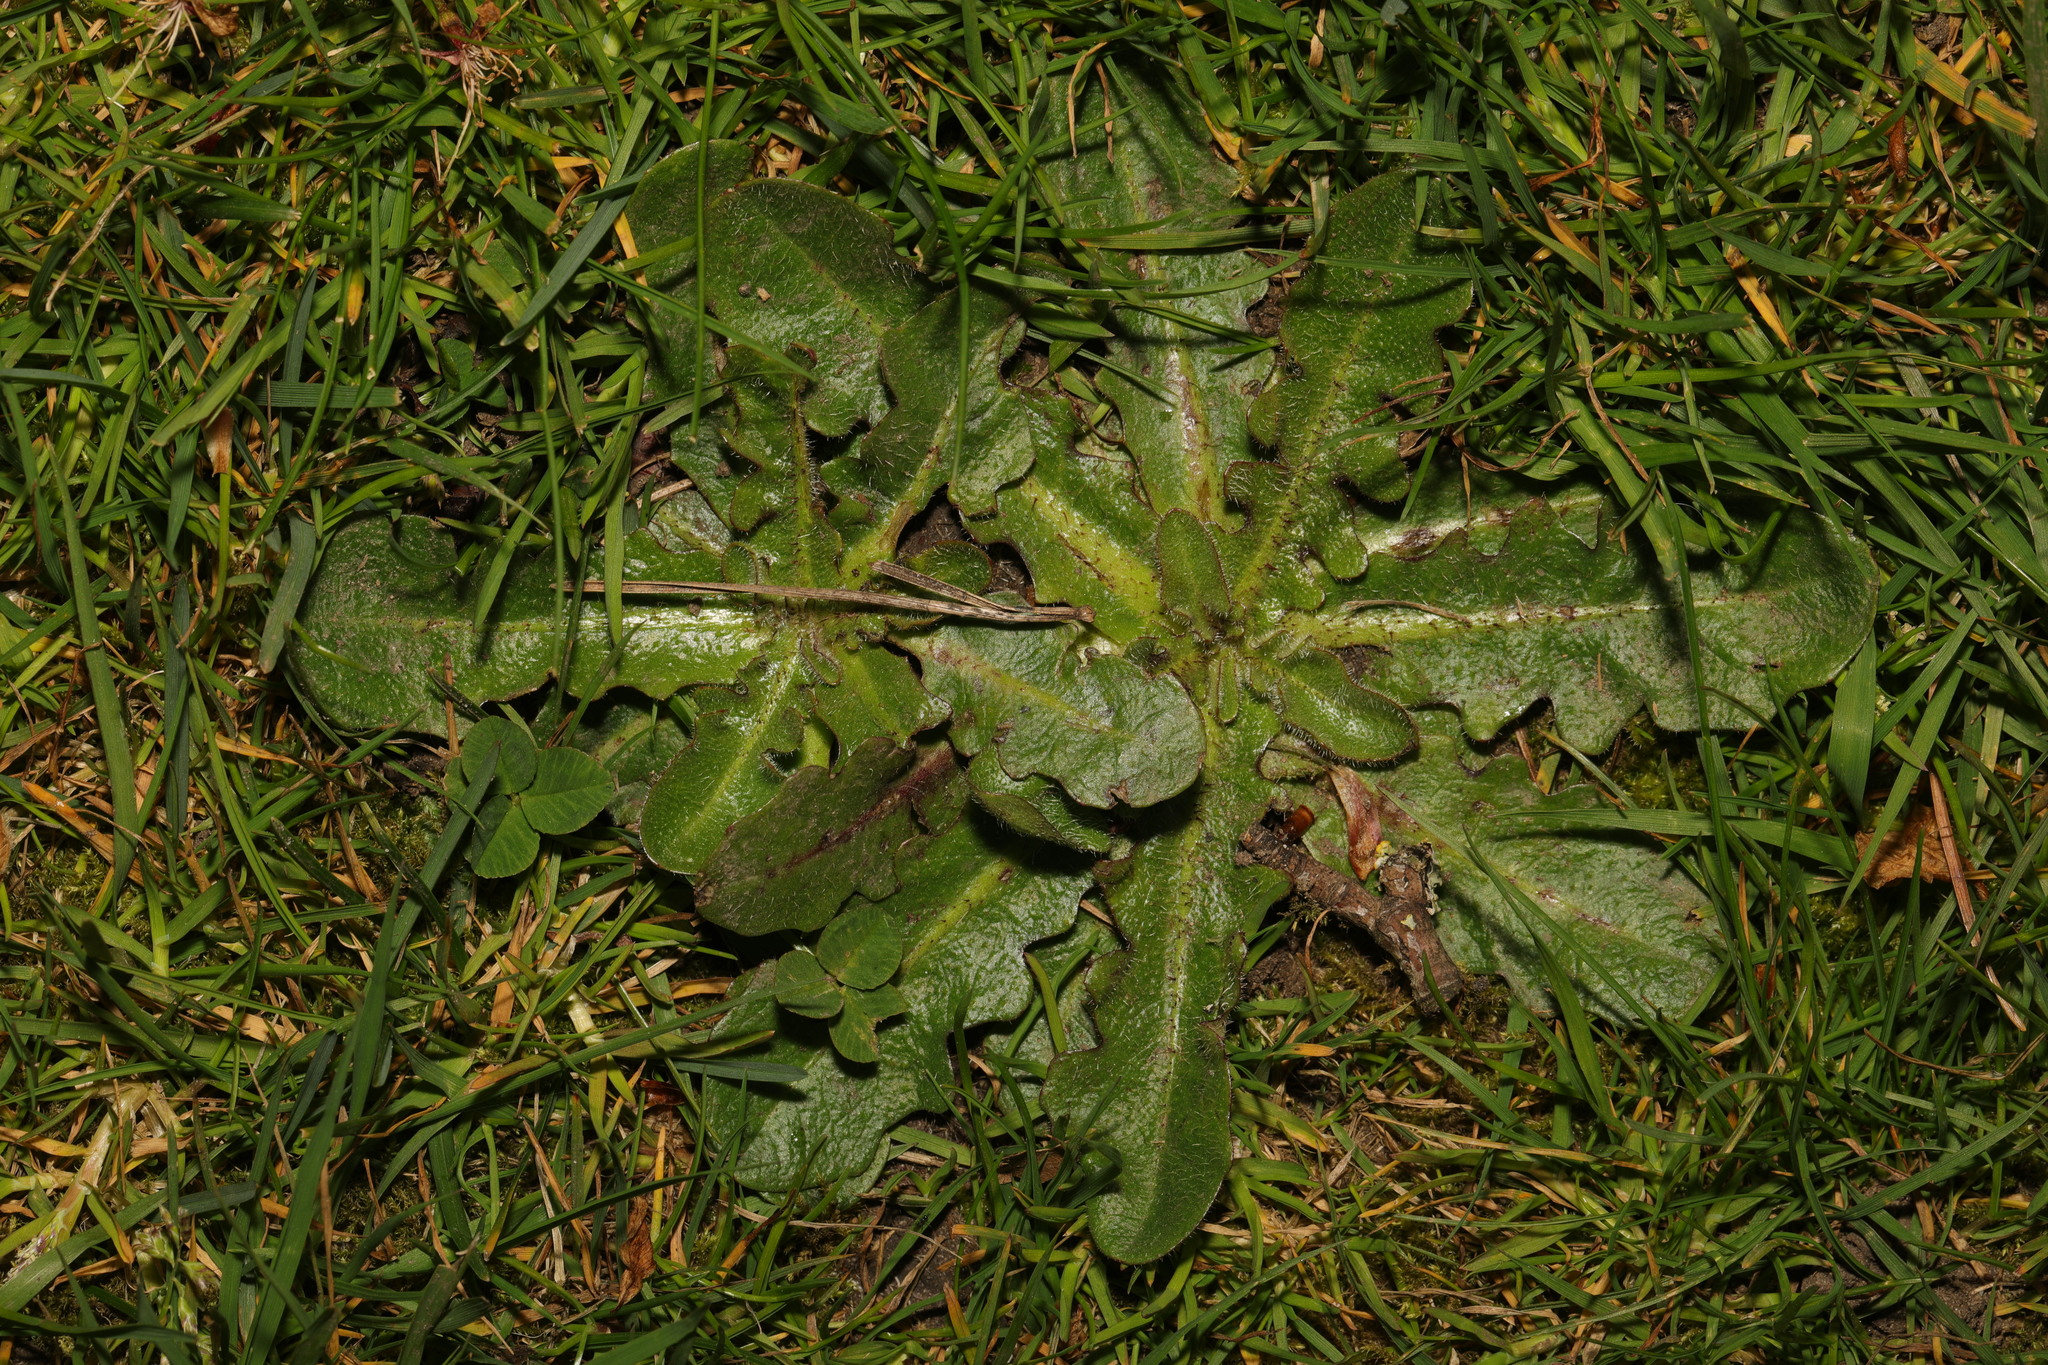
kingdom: Plantae
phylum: Tracheophyta
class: Magnoliopsida
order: Asterales
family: Asteraceae
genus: Hypochaeris
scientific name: Hypochaeris radicata
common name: Flatweed
